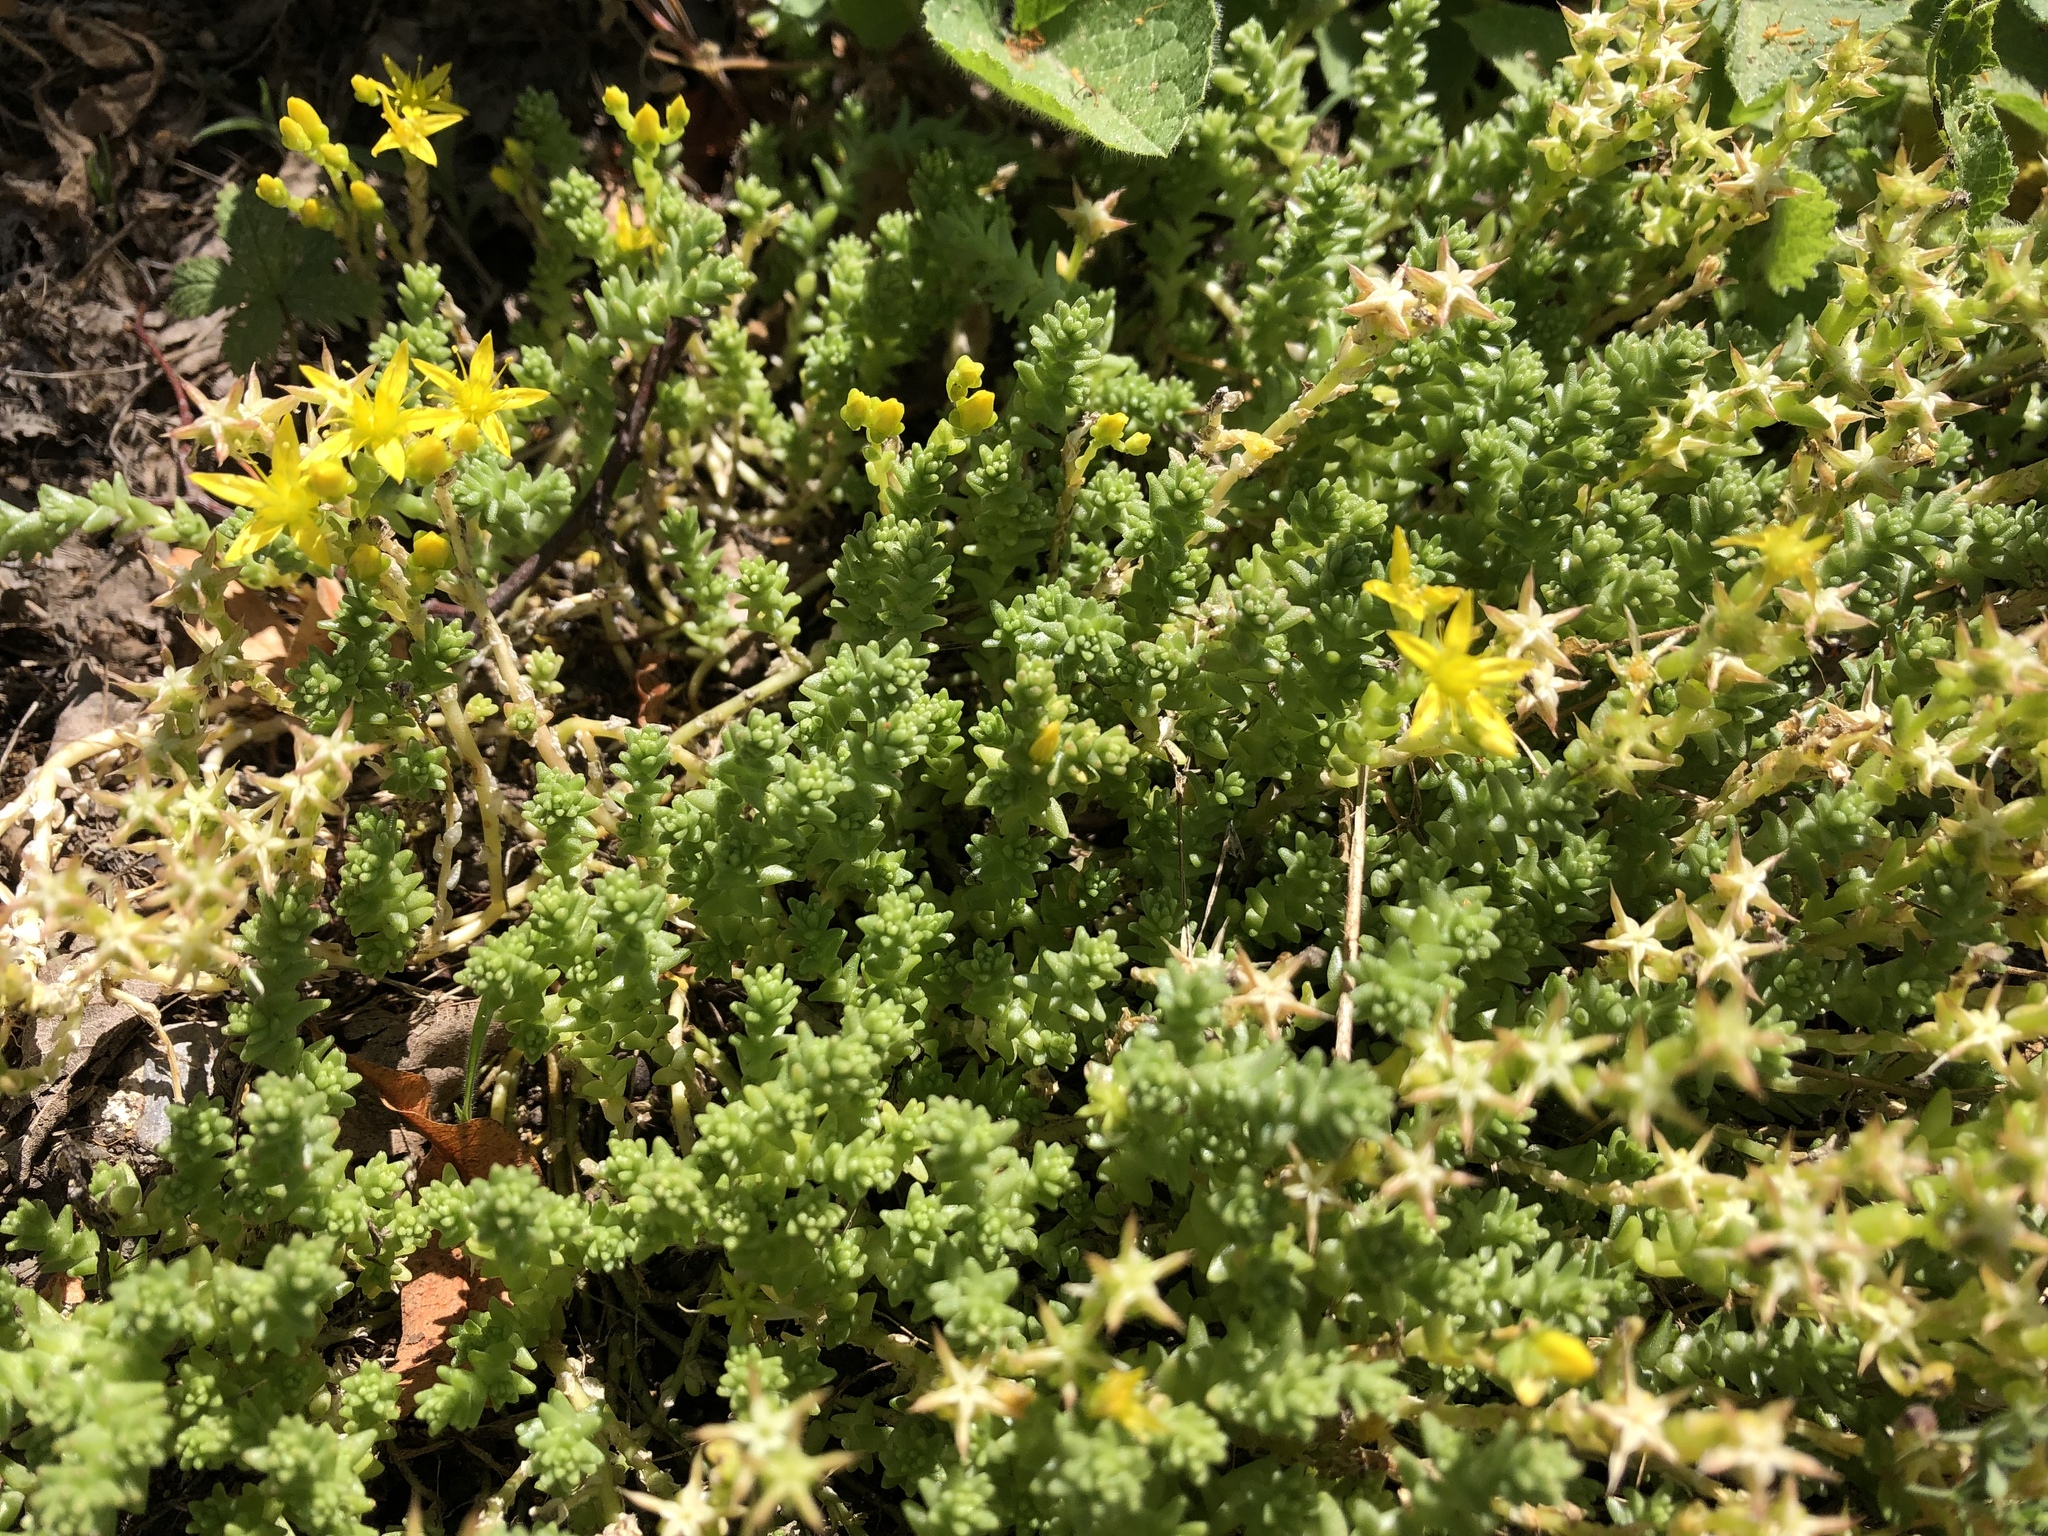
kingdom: Plantae
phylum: Tracheophyta
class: Magnoliopsida
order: Saxifragales
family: Crassulaceae
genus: Sedum
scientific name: Sedum acre
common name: Biting stonecrop
